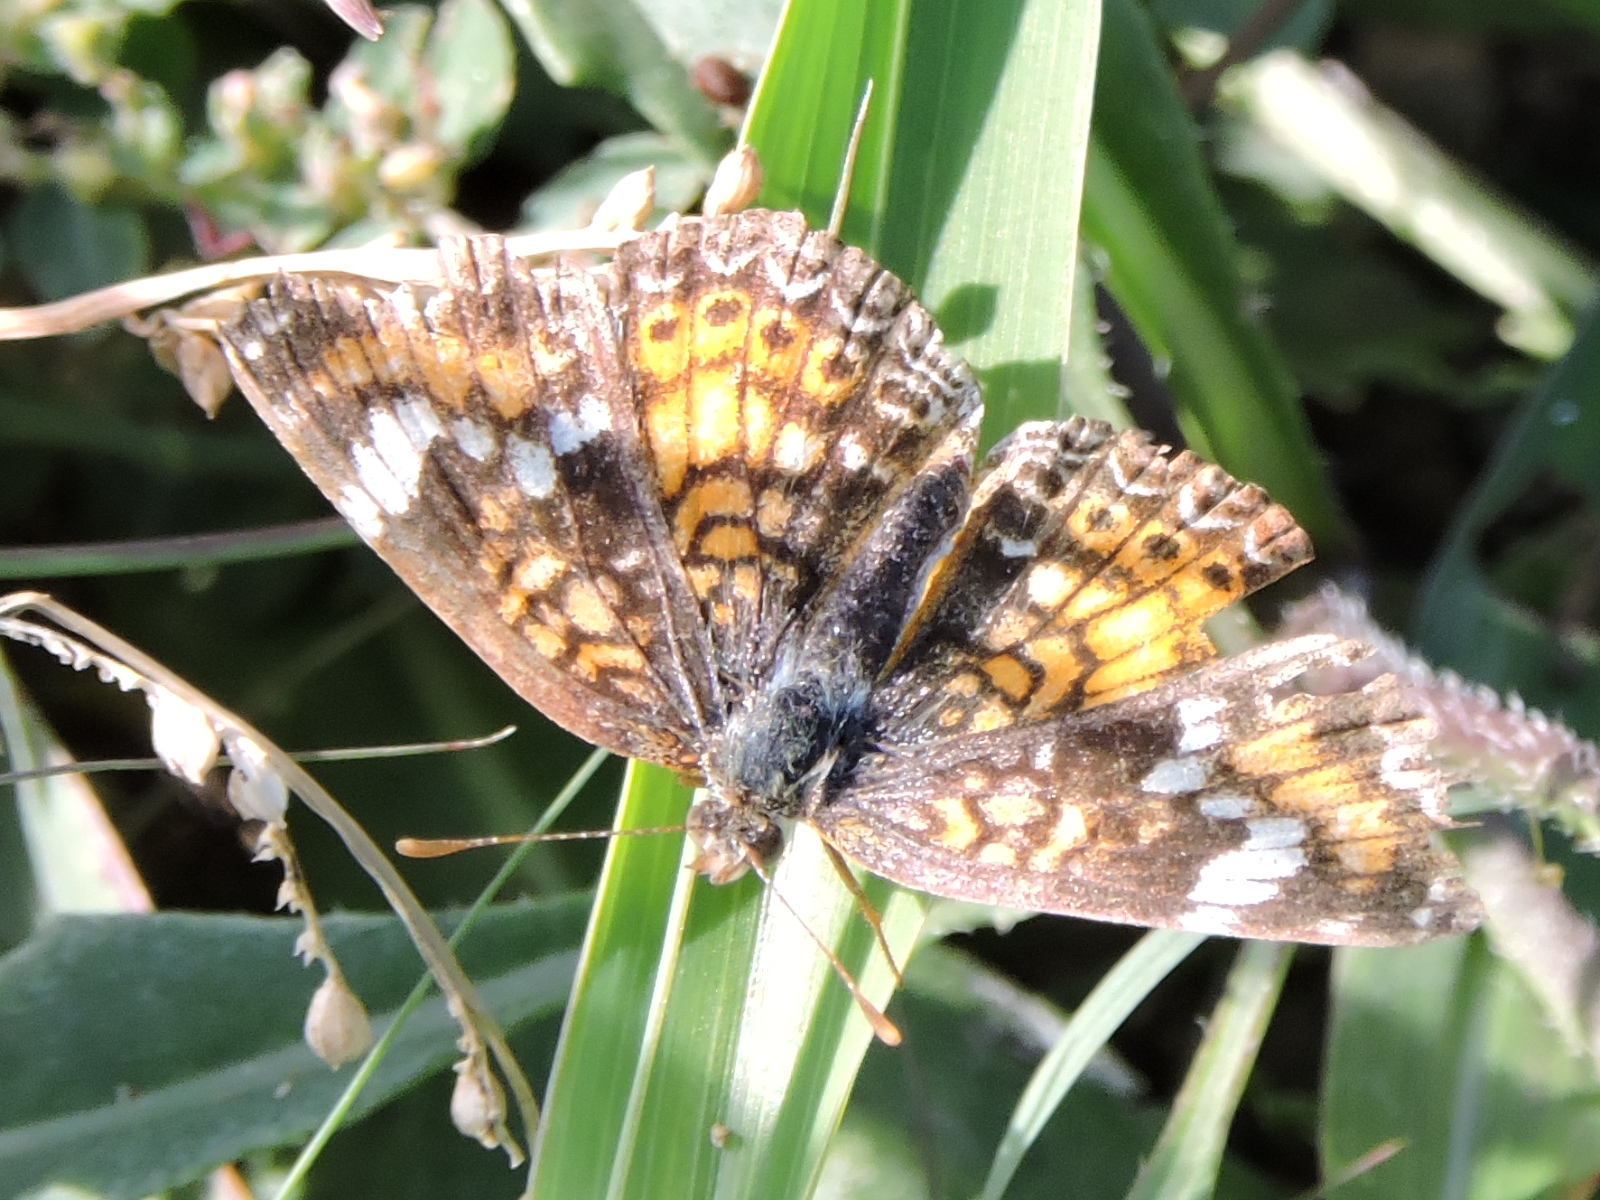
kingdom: Animalia
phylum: Arthropoda
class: Insecta
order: Lepidoptera
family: Nymphalidae
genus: Phyciodes
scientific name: Phyciodes phaon
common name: Phaon crescent
